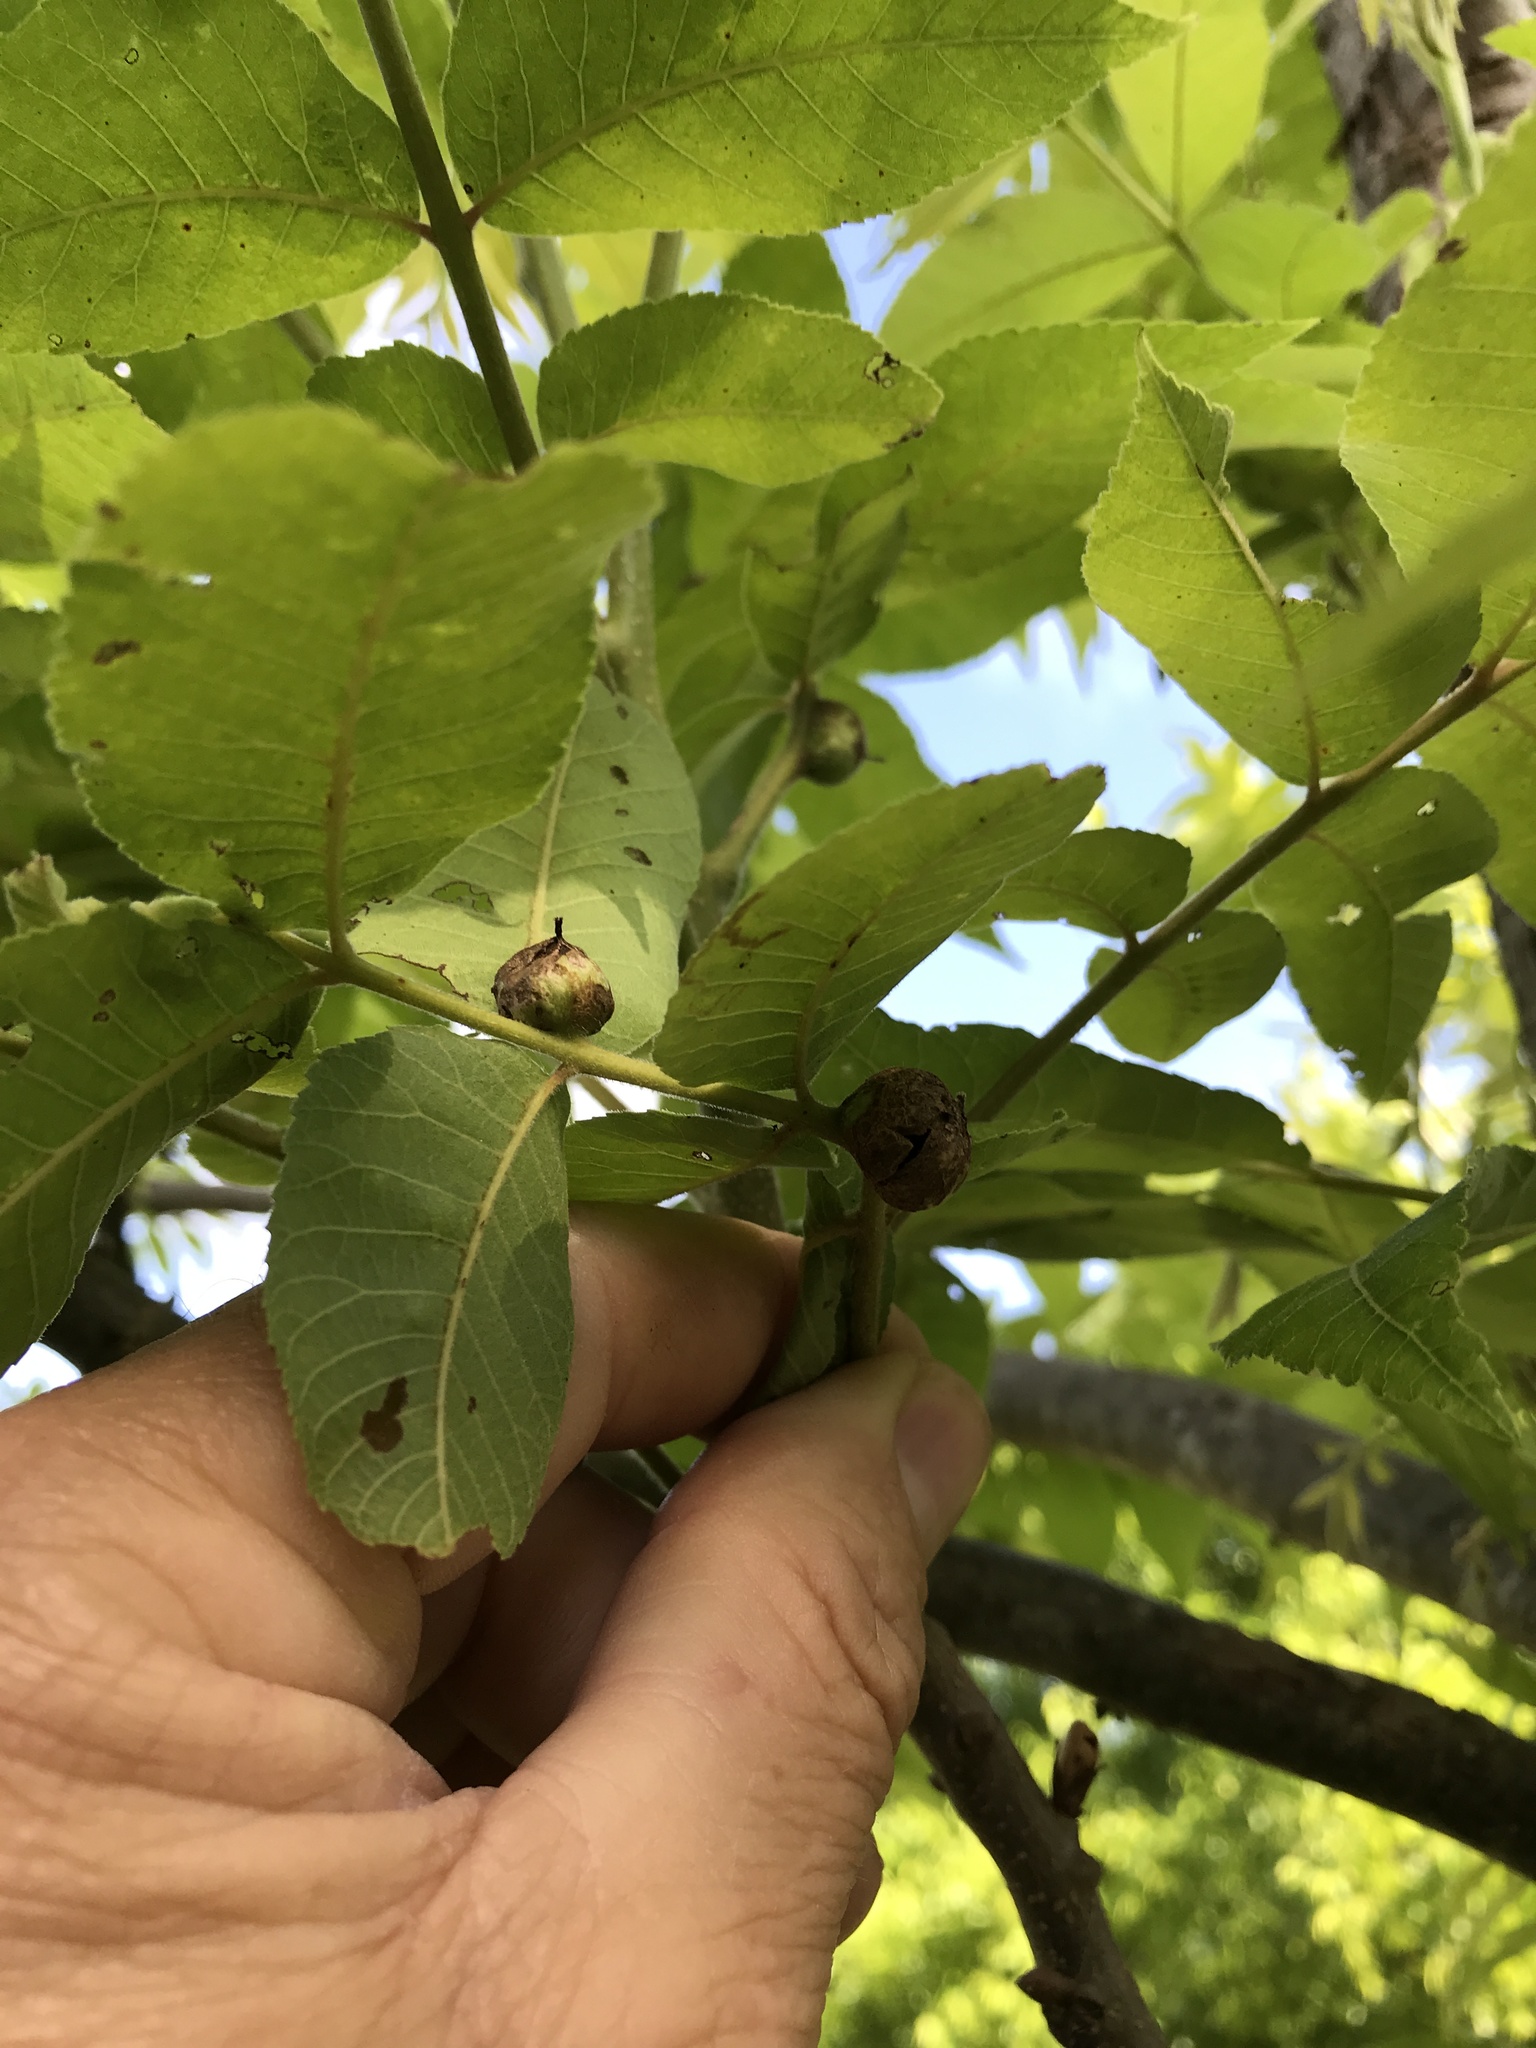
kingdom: Animalia
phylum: Arthropoda
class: Insecta
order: Hemiptera
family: Phylloxeridae
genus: Phylloxera
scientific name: Phylloxera devastatrix
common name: Pecan phylloxera
